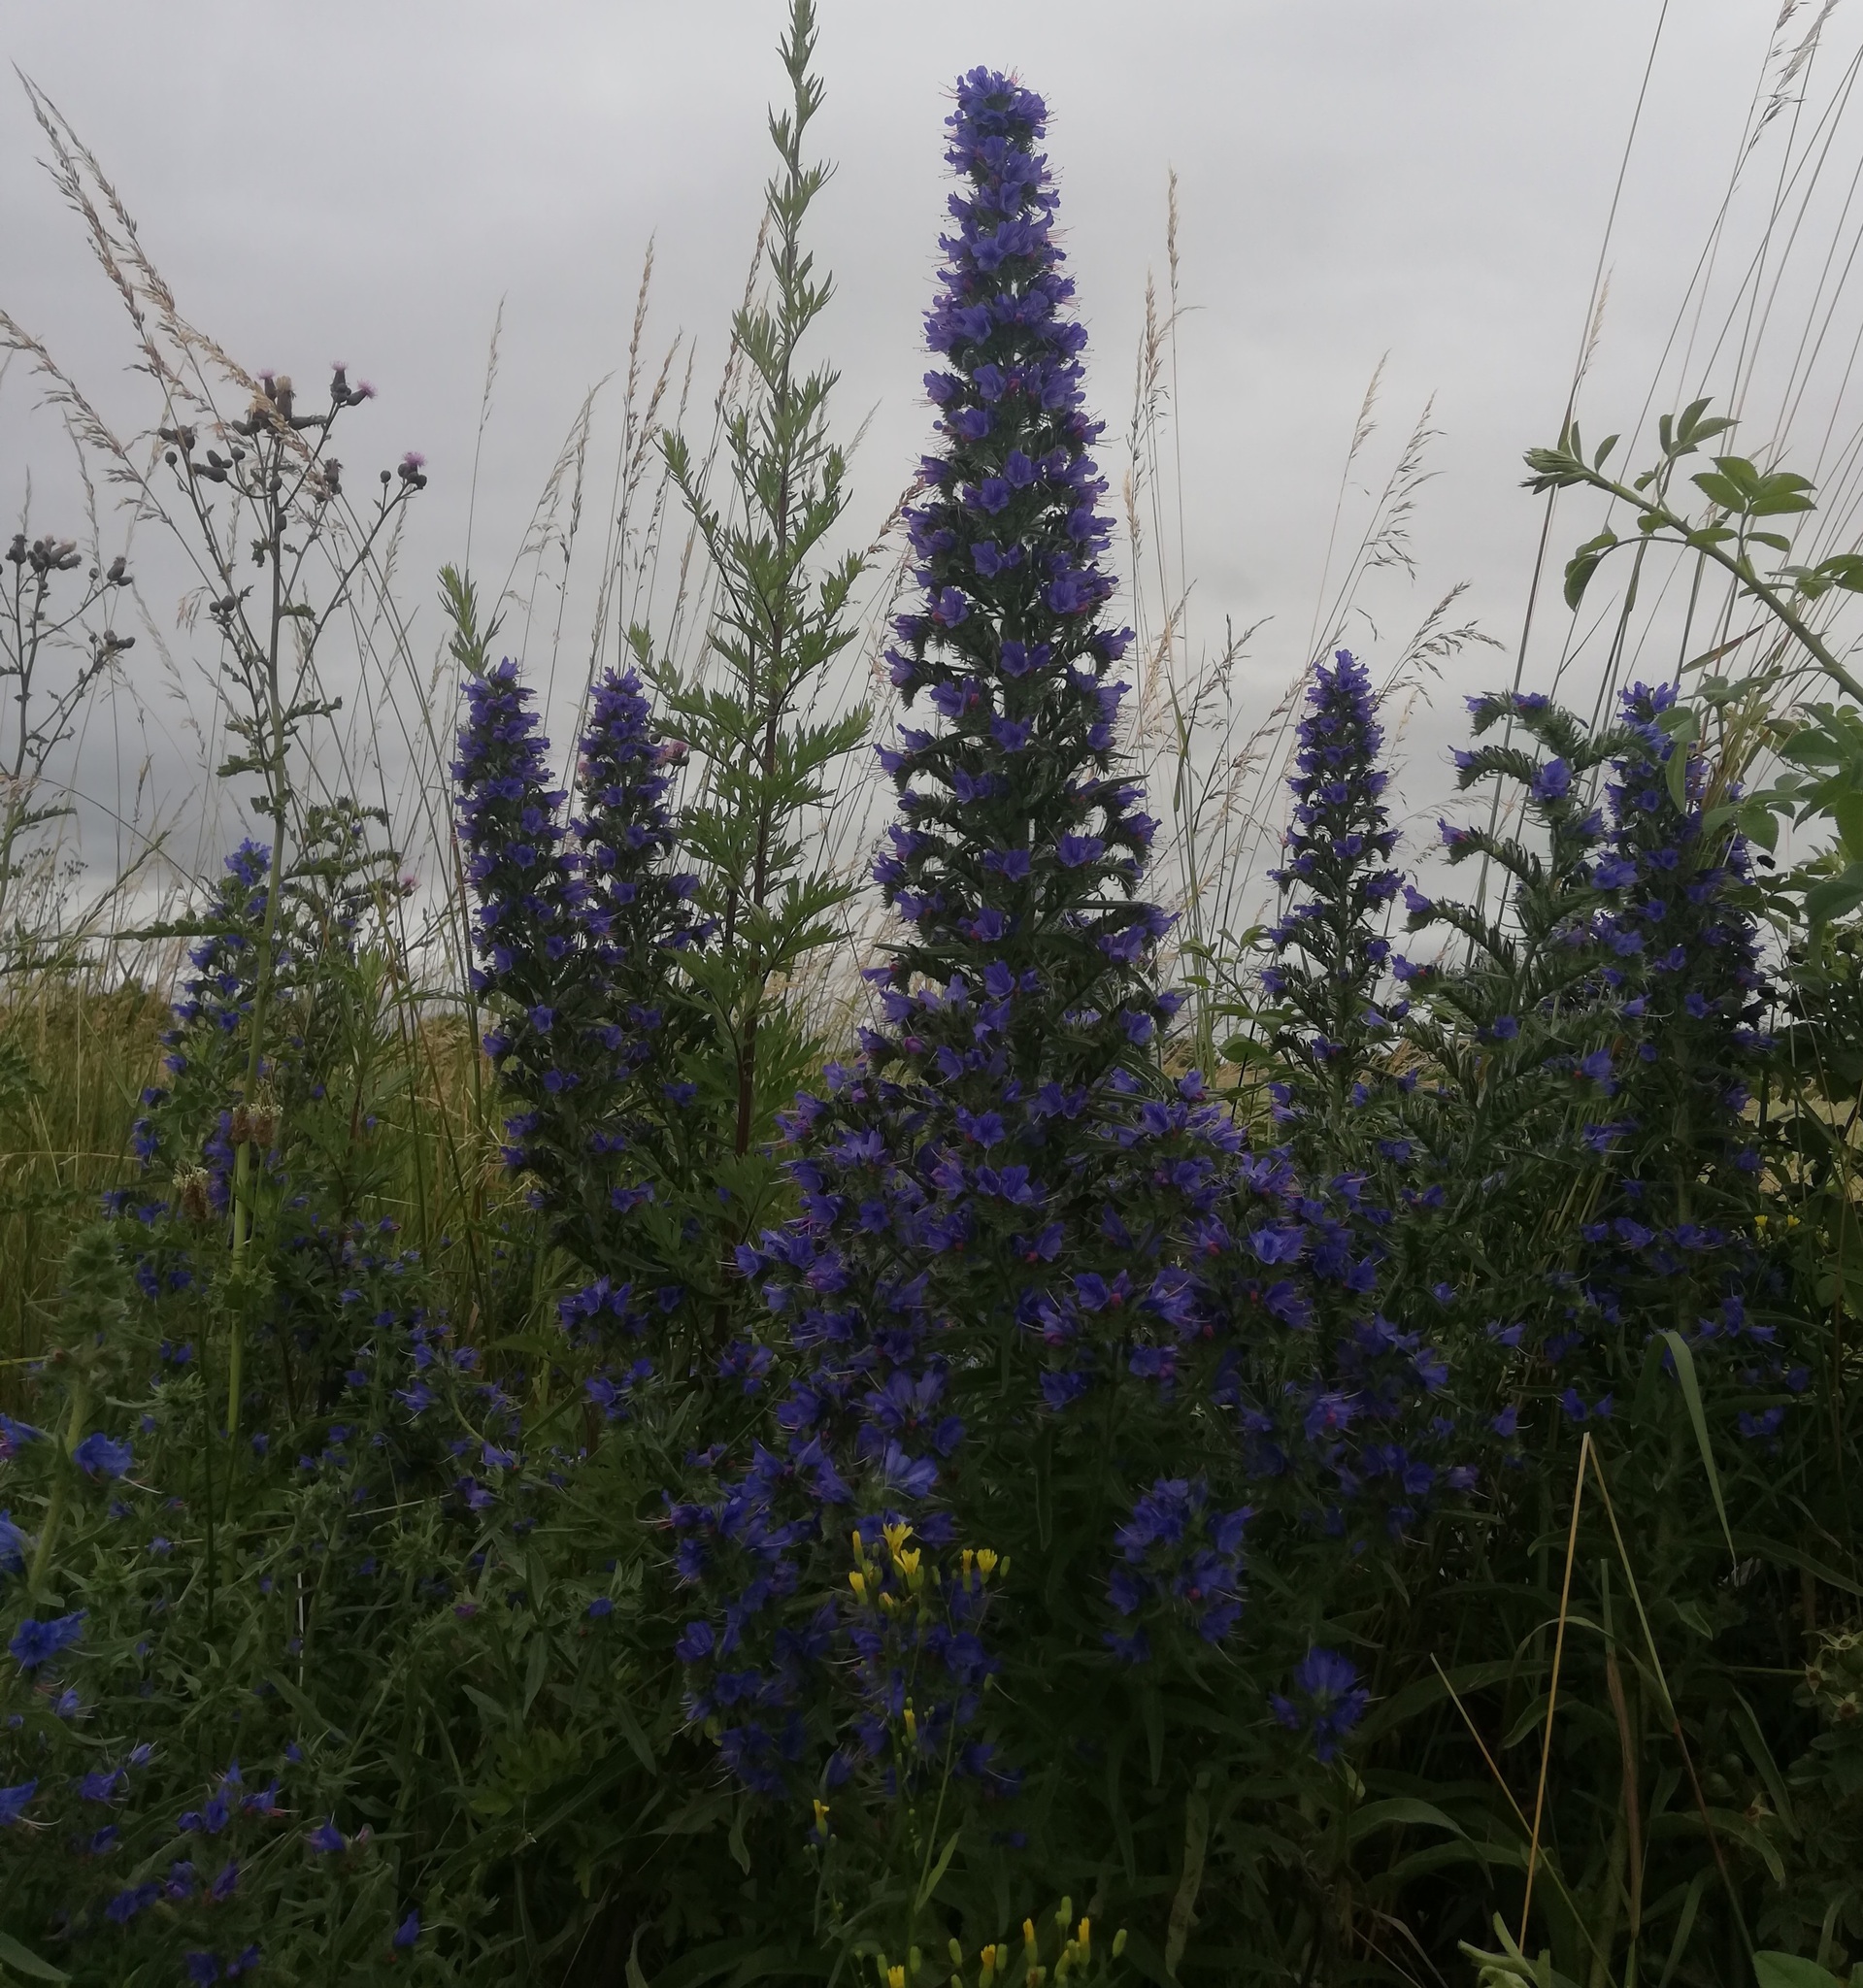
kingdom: Plantae
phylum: Tracheophyta
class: Magnoliopsida
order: Boraginales
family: Boraginaceae
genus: Echium
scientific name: Echium vulgare
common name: Common viper's bugloss
